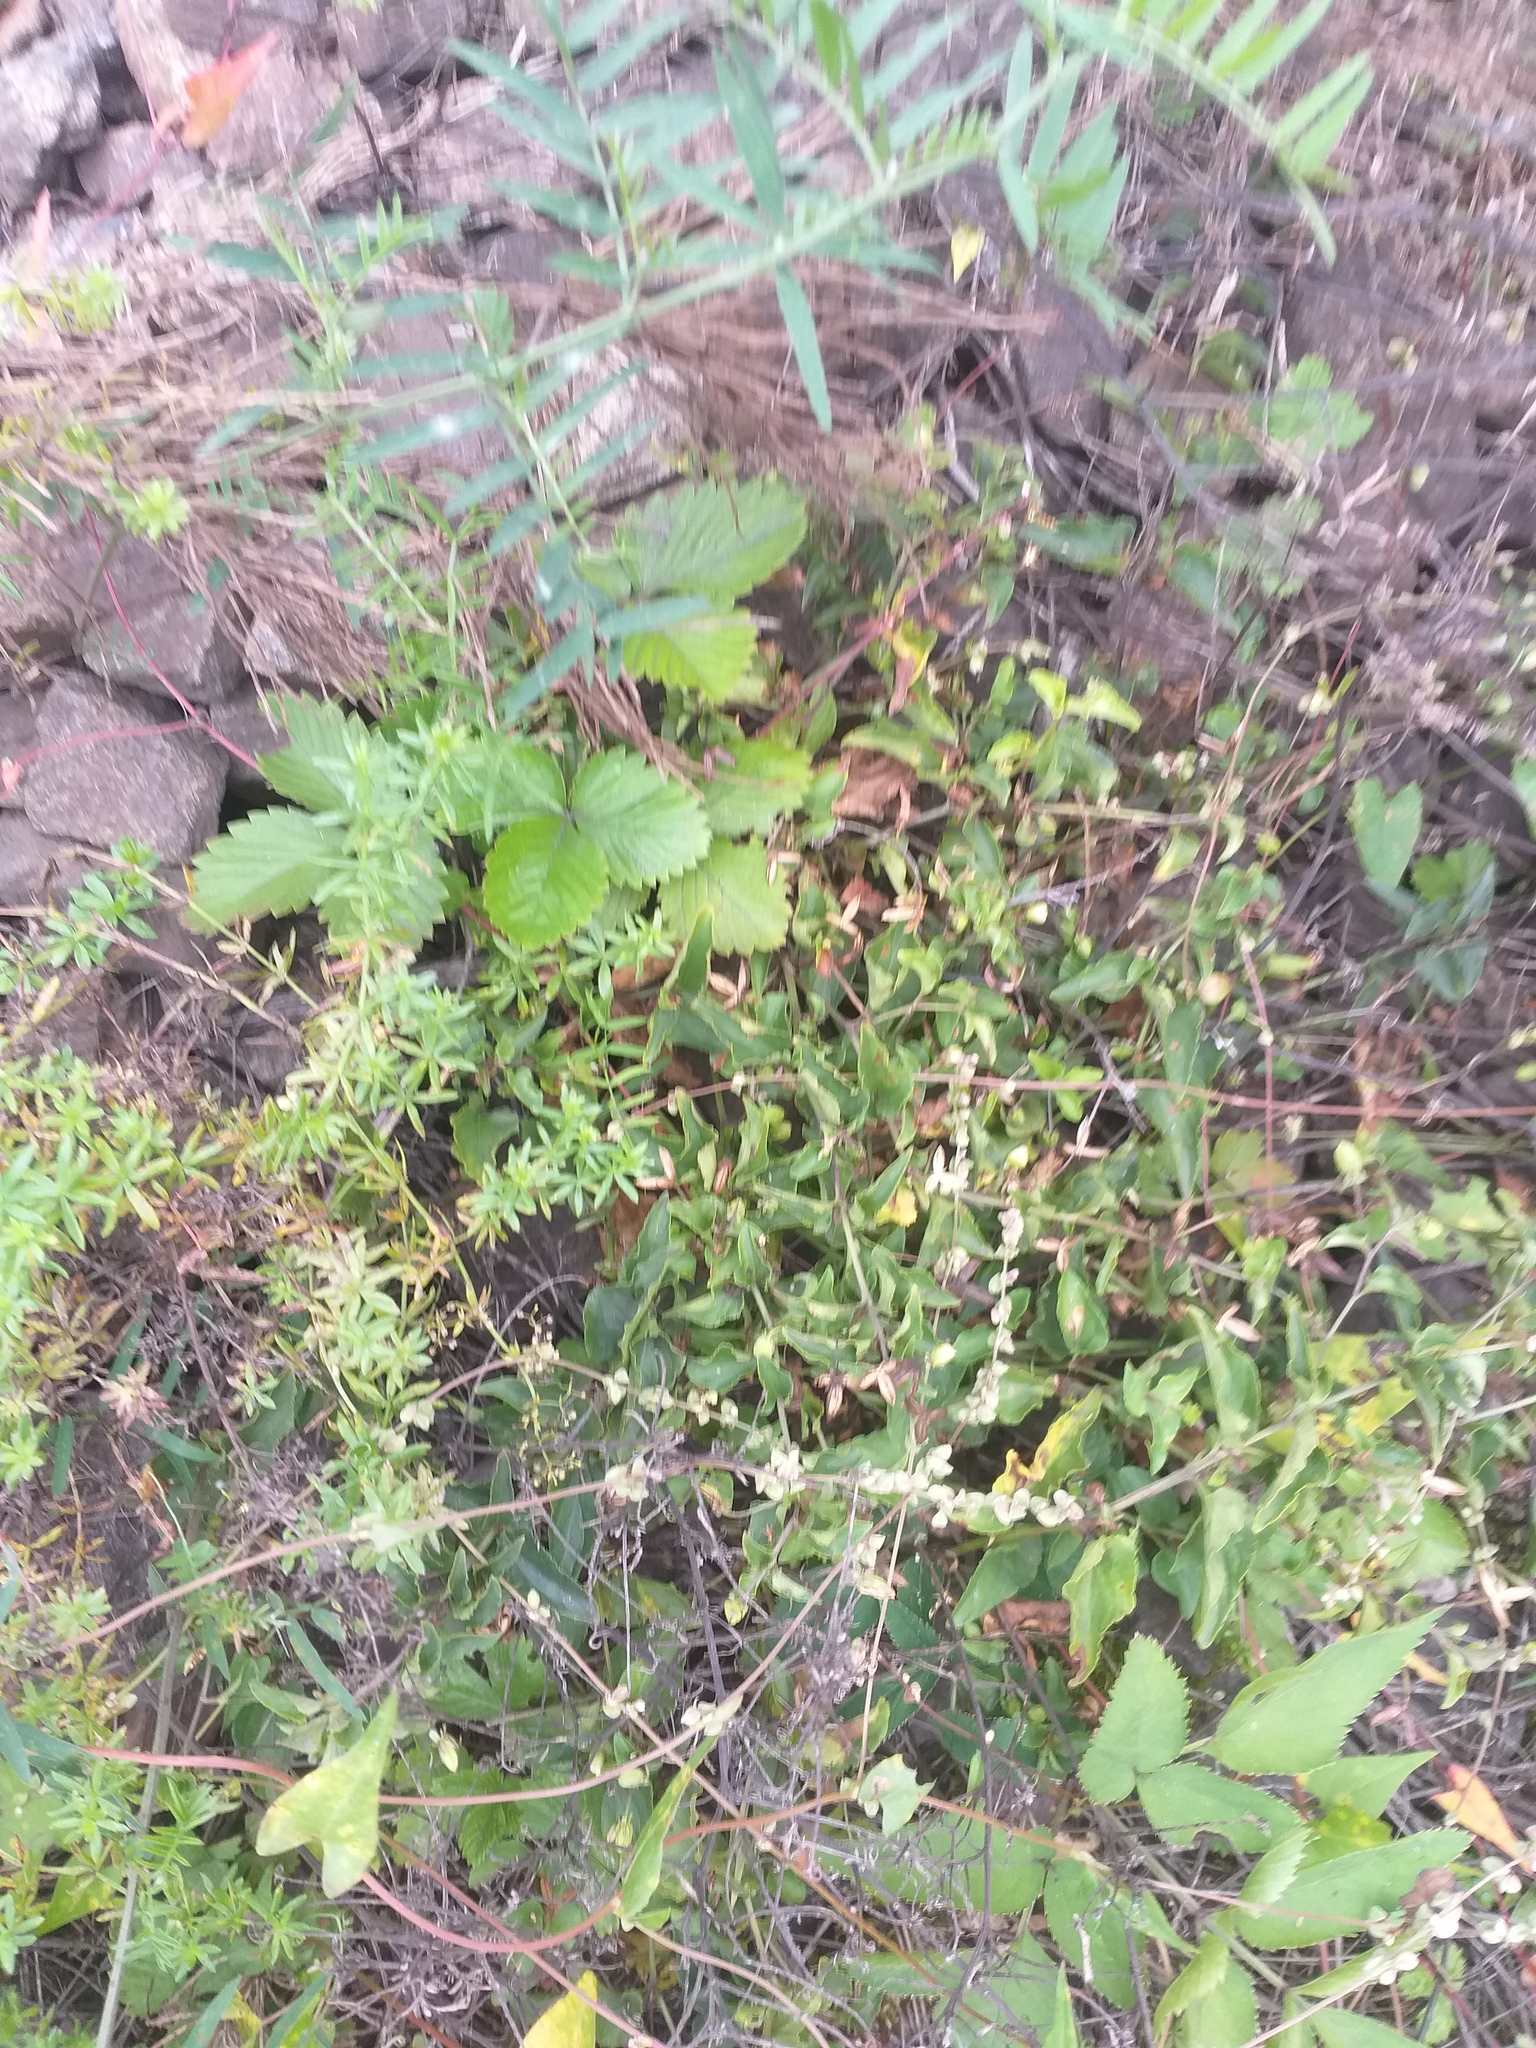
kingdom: Plantae
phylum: Tracheophyta
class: Magnoliopsida
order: Malpighiales
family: Violaceae
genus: Viola
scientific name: Viola canina
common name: Heath dog-violet
